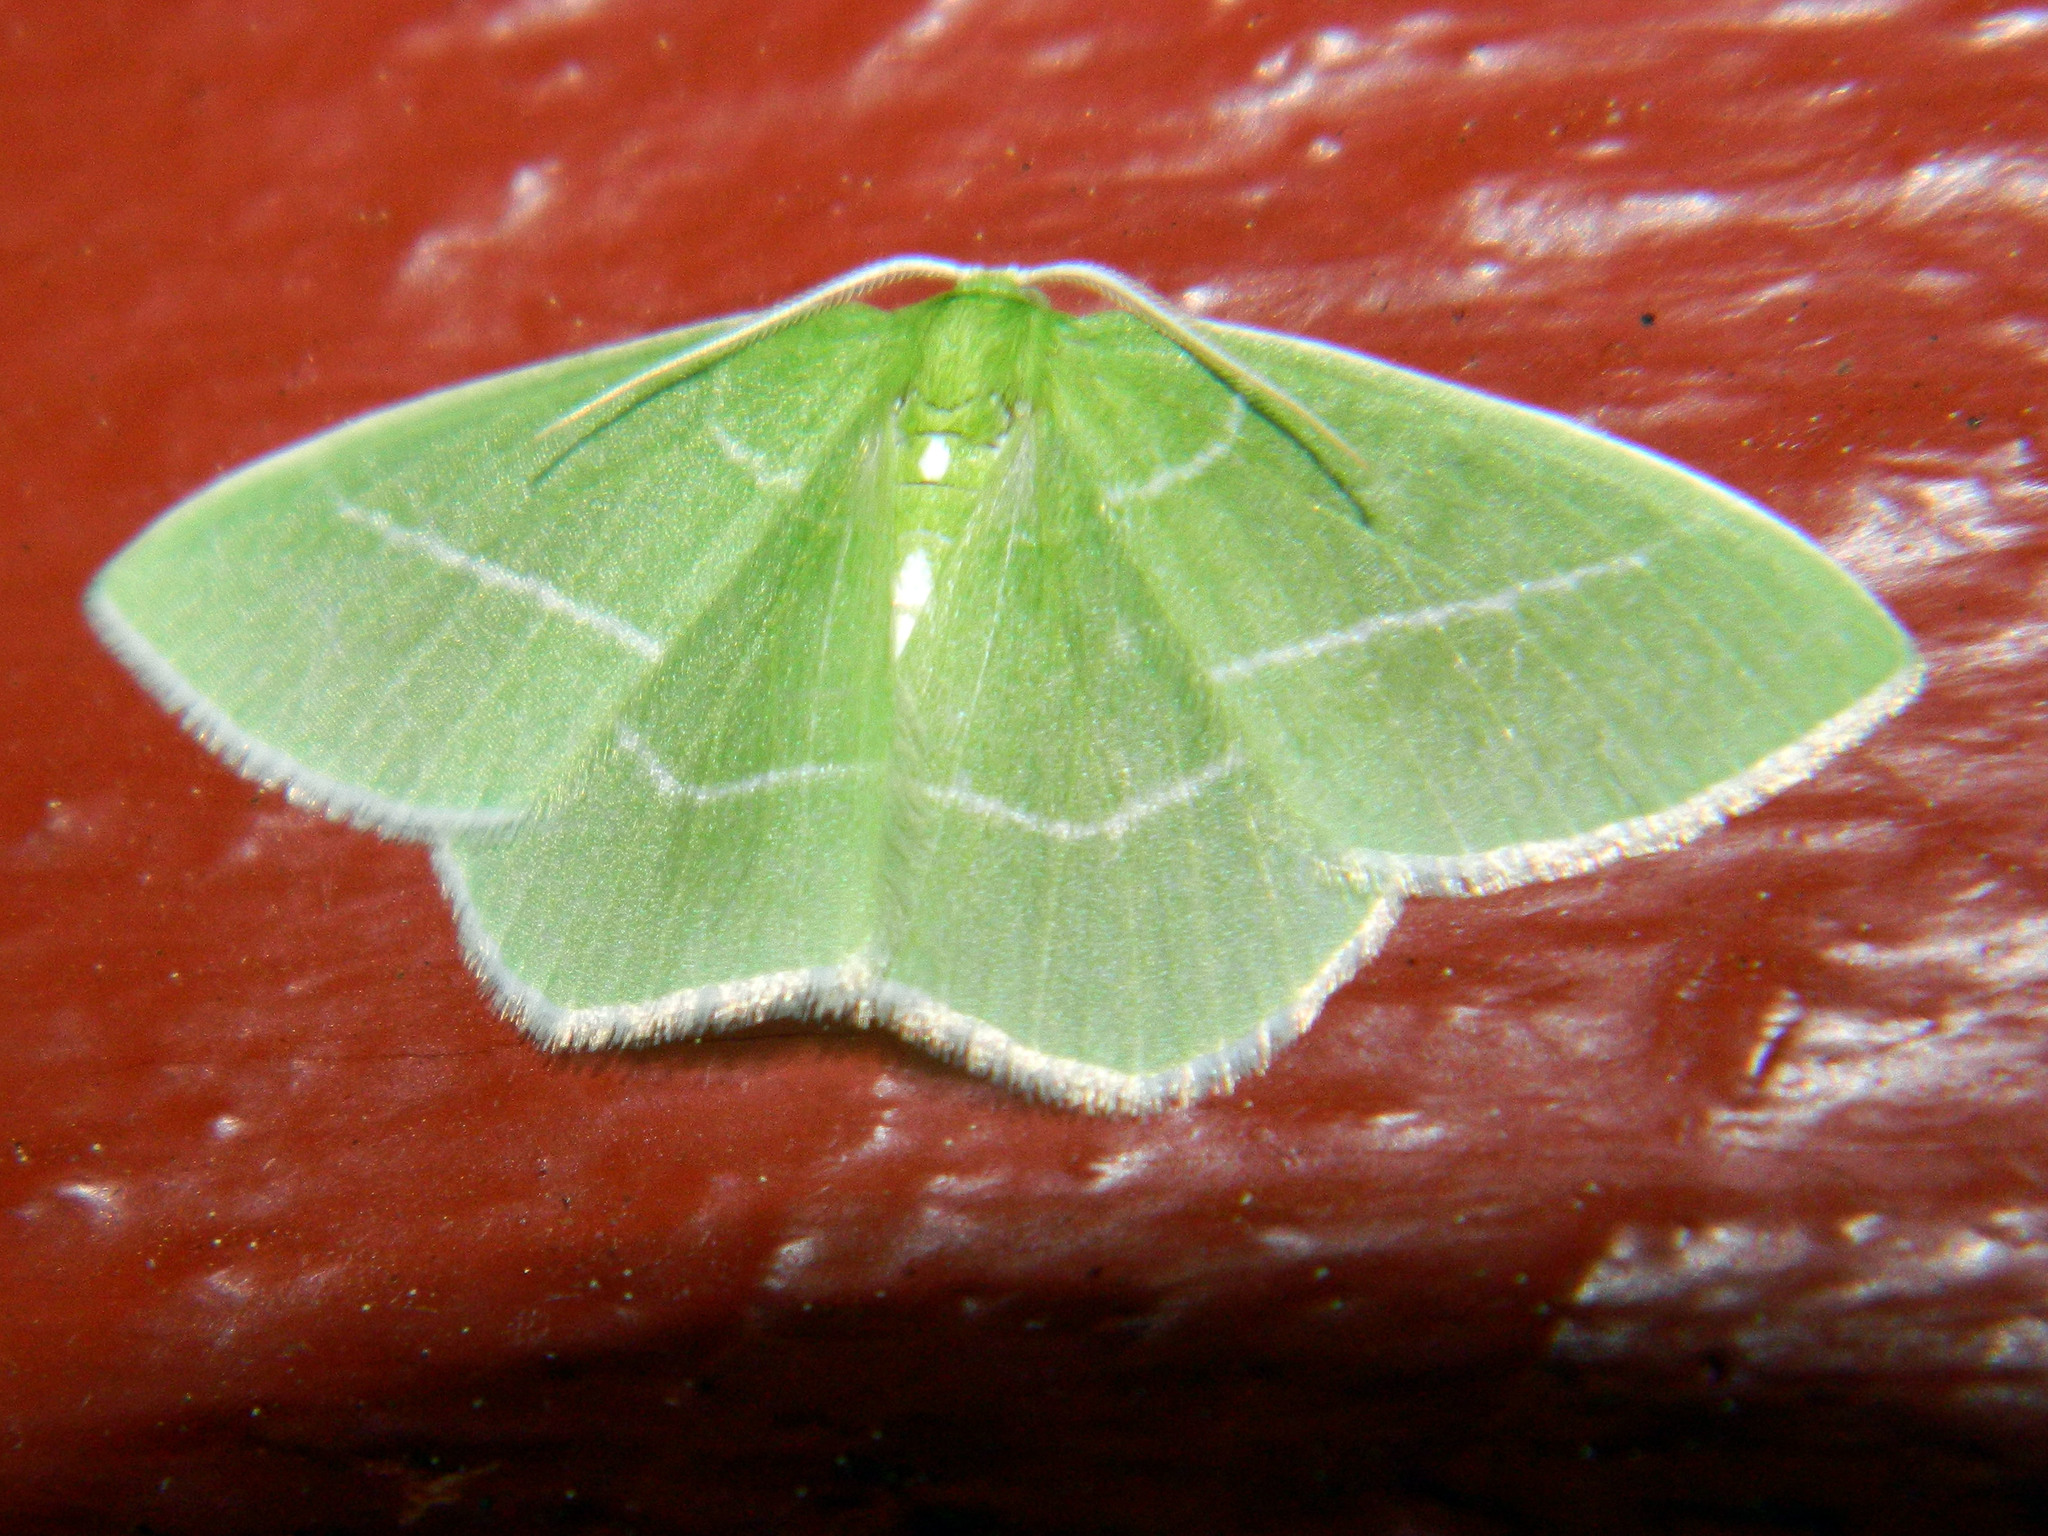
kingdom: Animalia
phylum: Arthropoda
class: Insecta
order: Lepidoptera
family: Geometridae
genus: Nemoria
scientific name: Nemoria mimosaria
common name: White-fringed emerald
